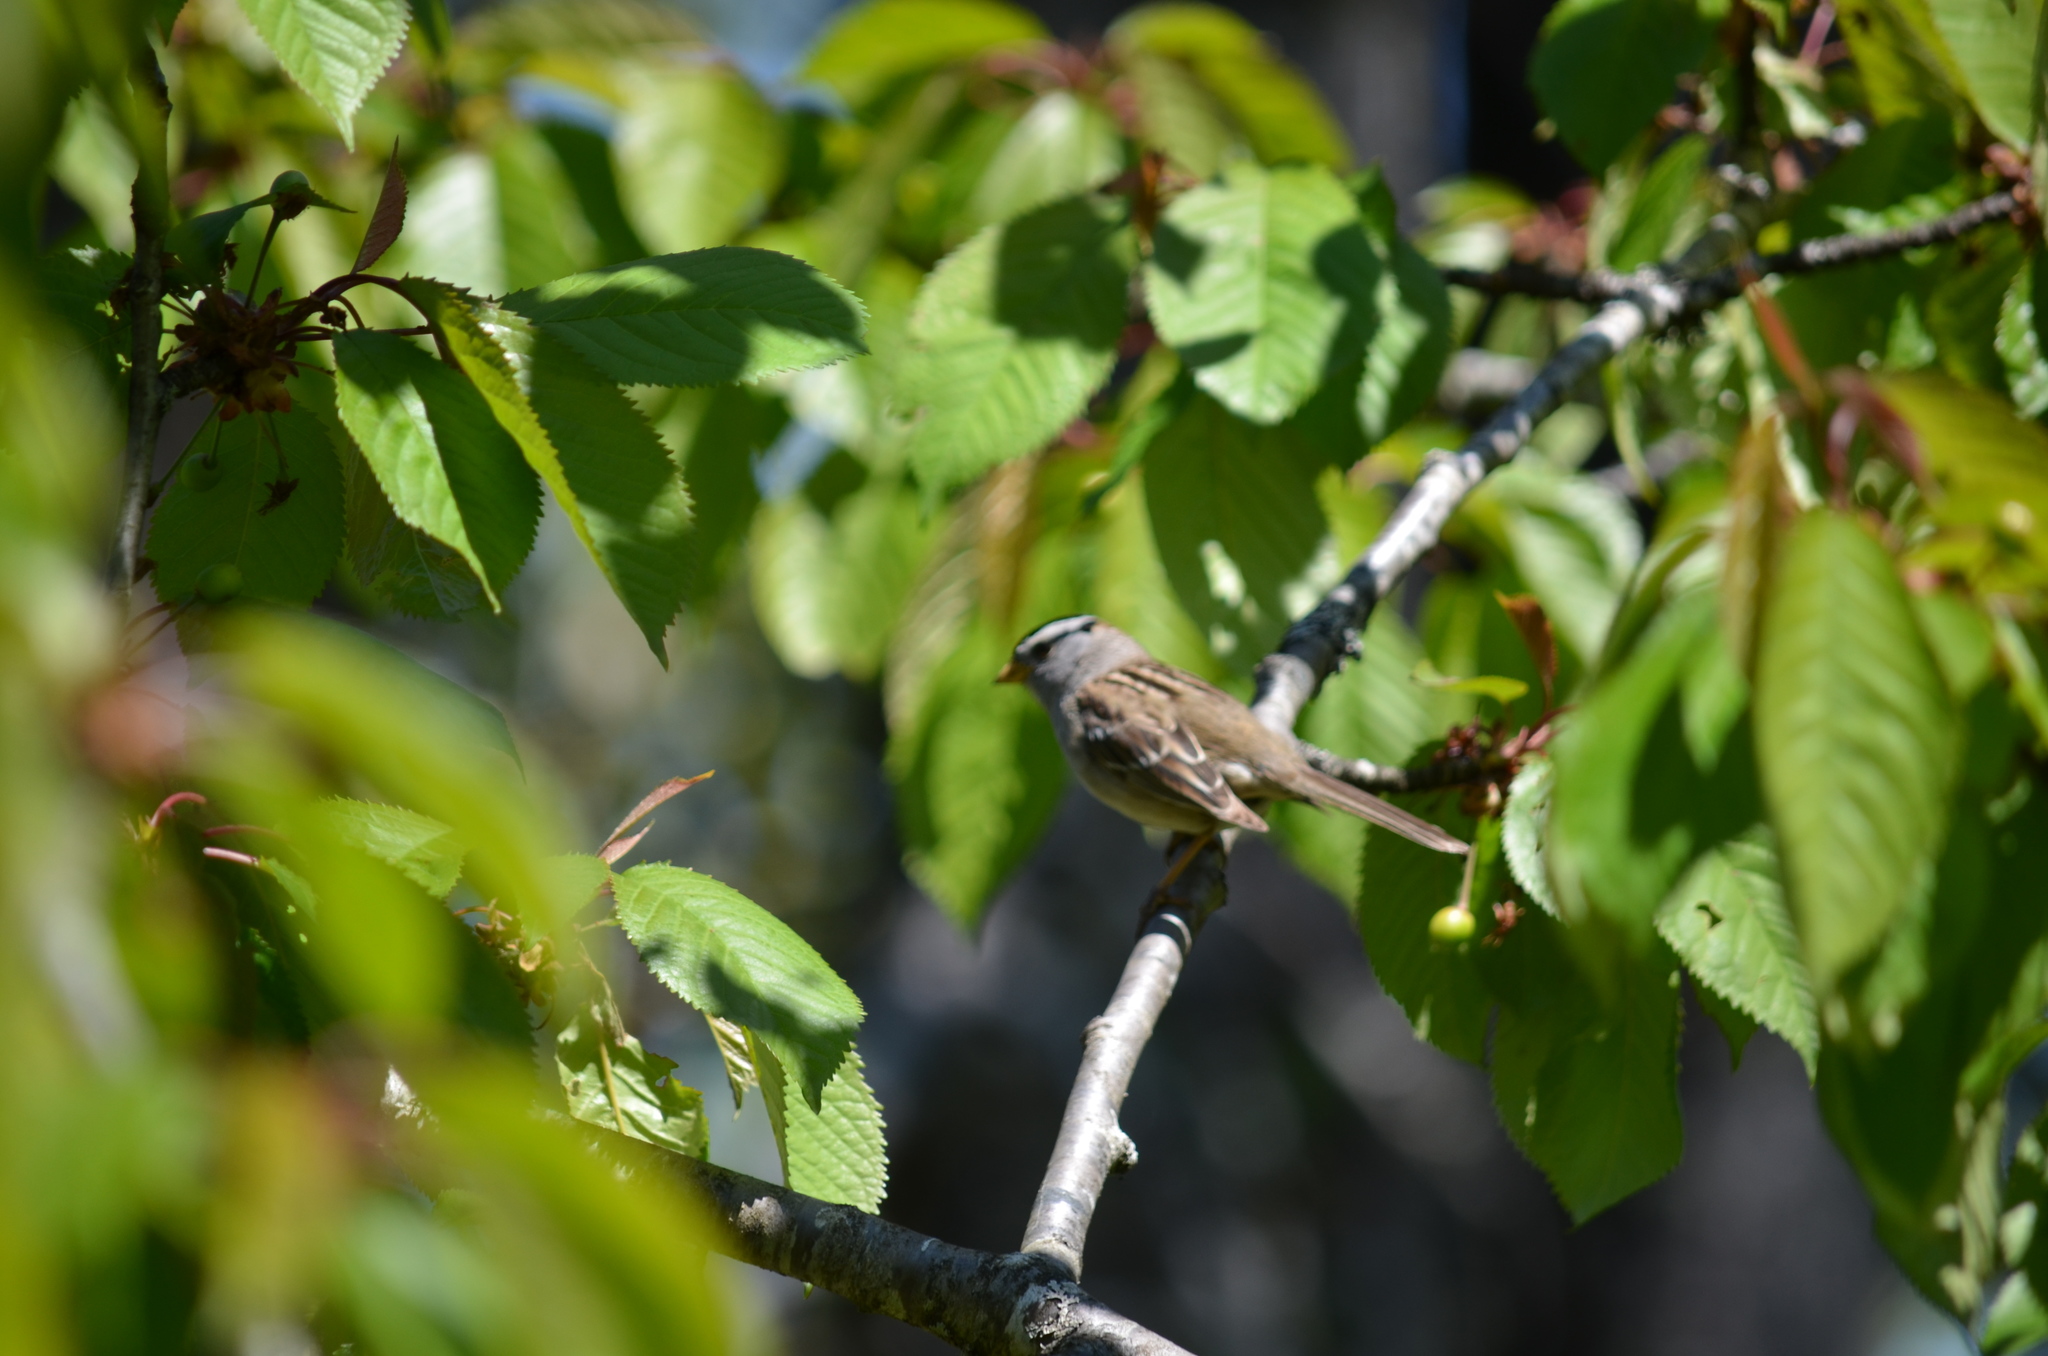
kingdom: Animalia
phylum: Chordata
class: Aves
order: Passeriformes
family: Passerellidae
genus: Zonotrichia
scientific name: Zonotrichia leucophrys
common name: White-crowned sparrow
